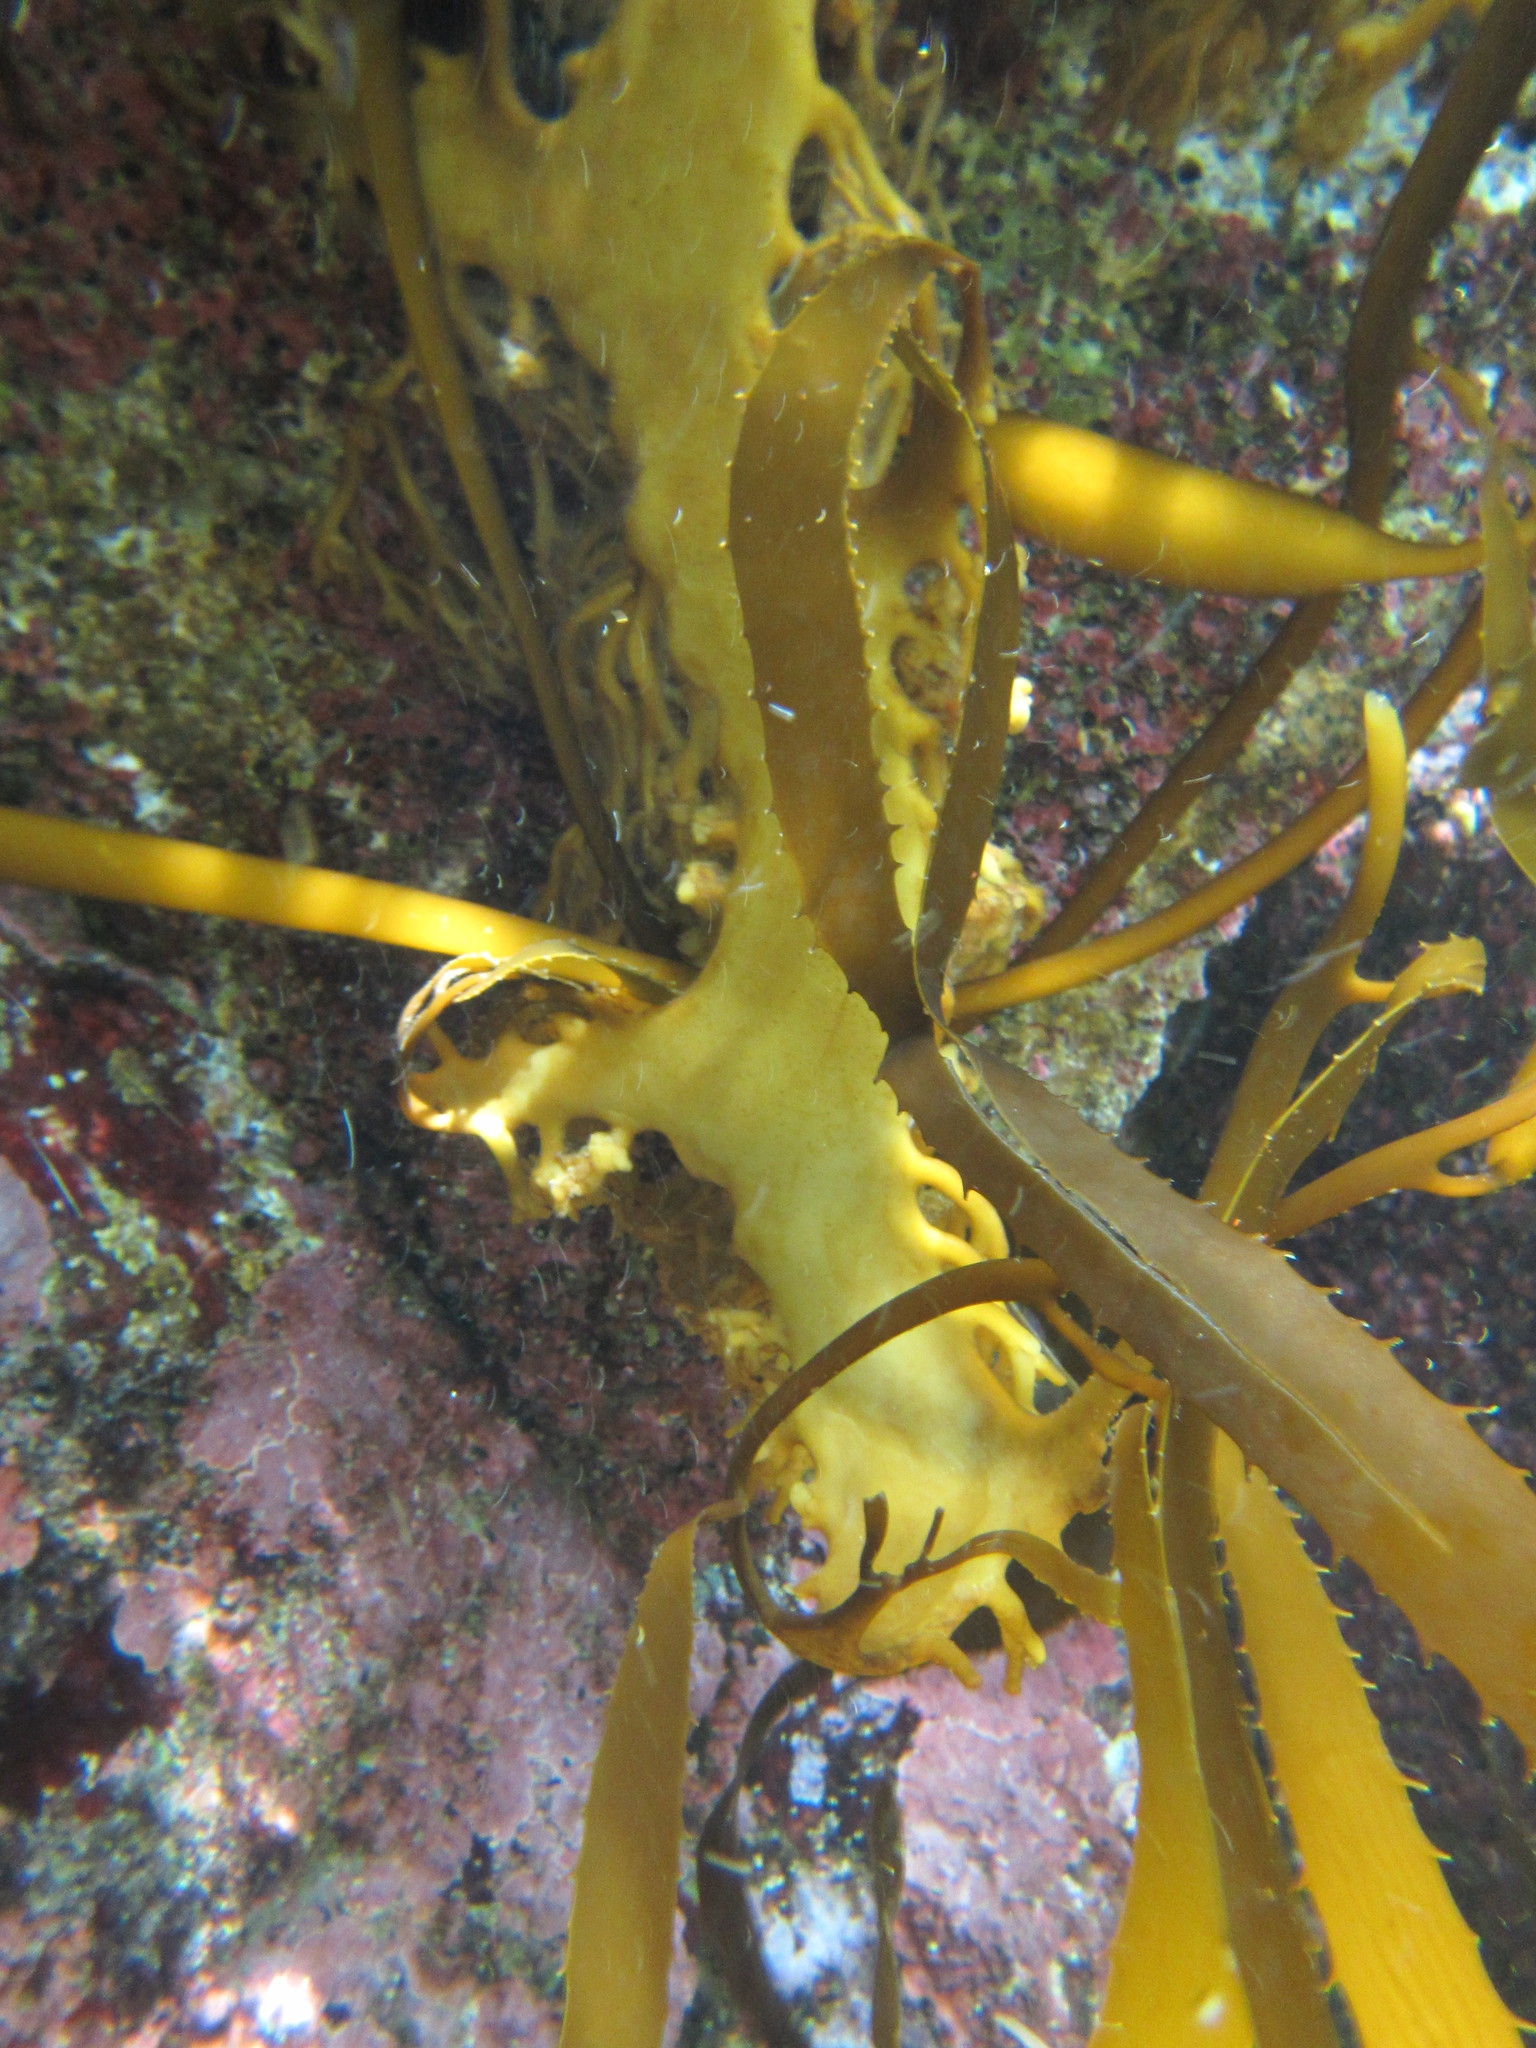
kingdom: Chromista
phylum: Ochrophyta
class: Phaeophyceae
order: Laminariales
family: Laminariaceae
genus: Macrocystis
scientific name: Macrocystis pyrifera
